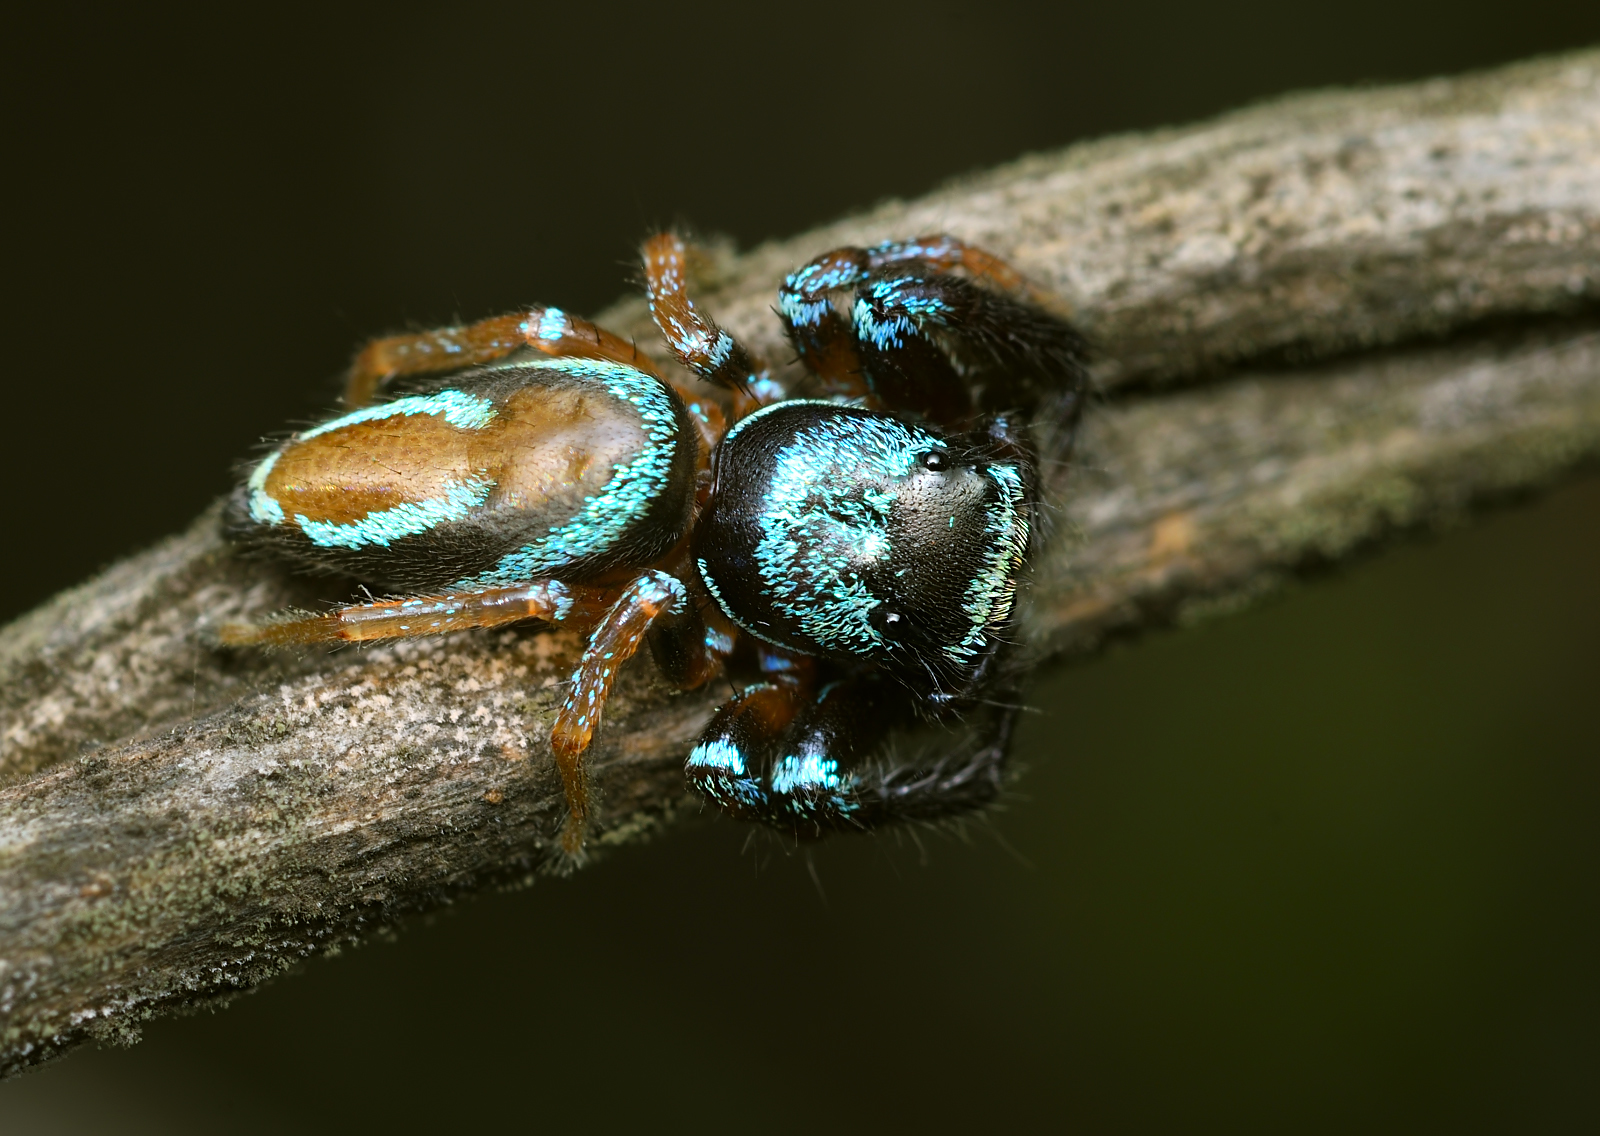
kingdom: Animalia
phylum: Arthropoda
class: Arachnida
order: Araneae
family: Salticidae
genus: Thiania
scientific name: Thiania bhamoensis
